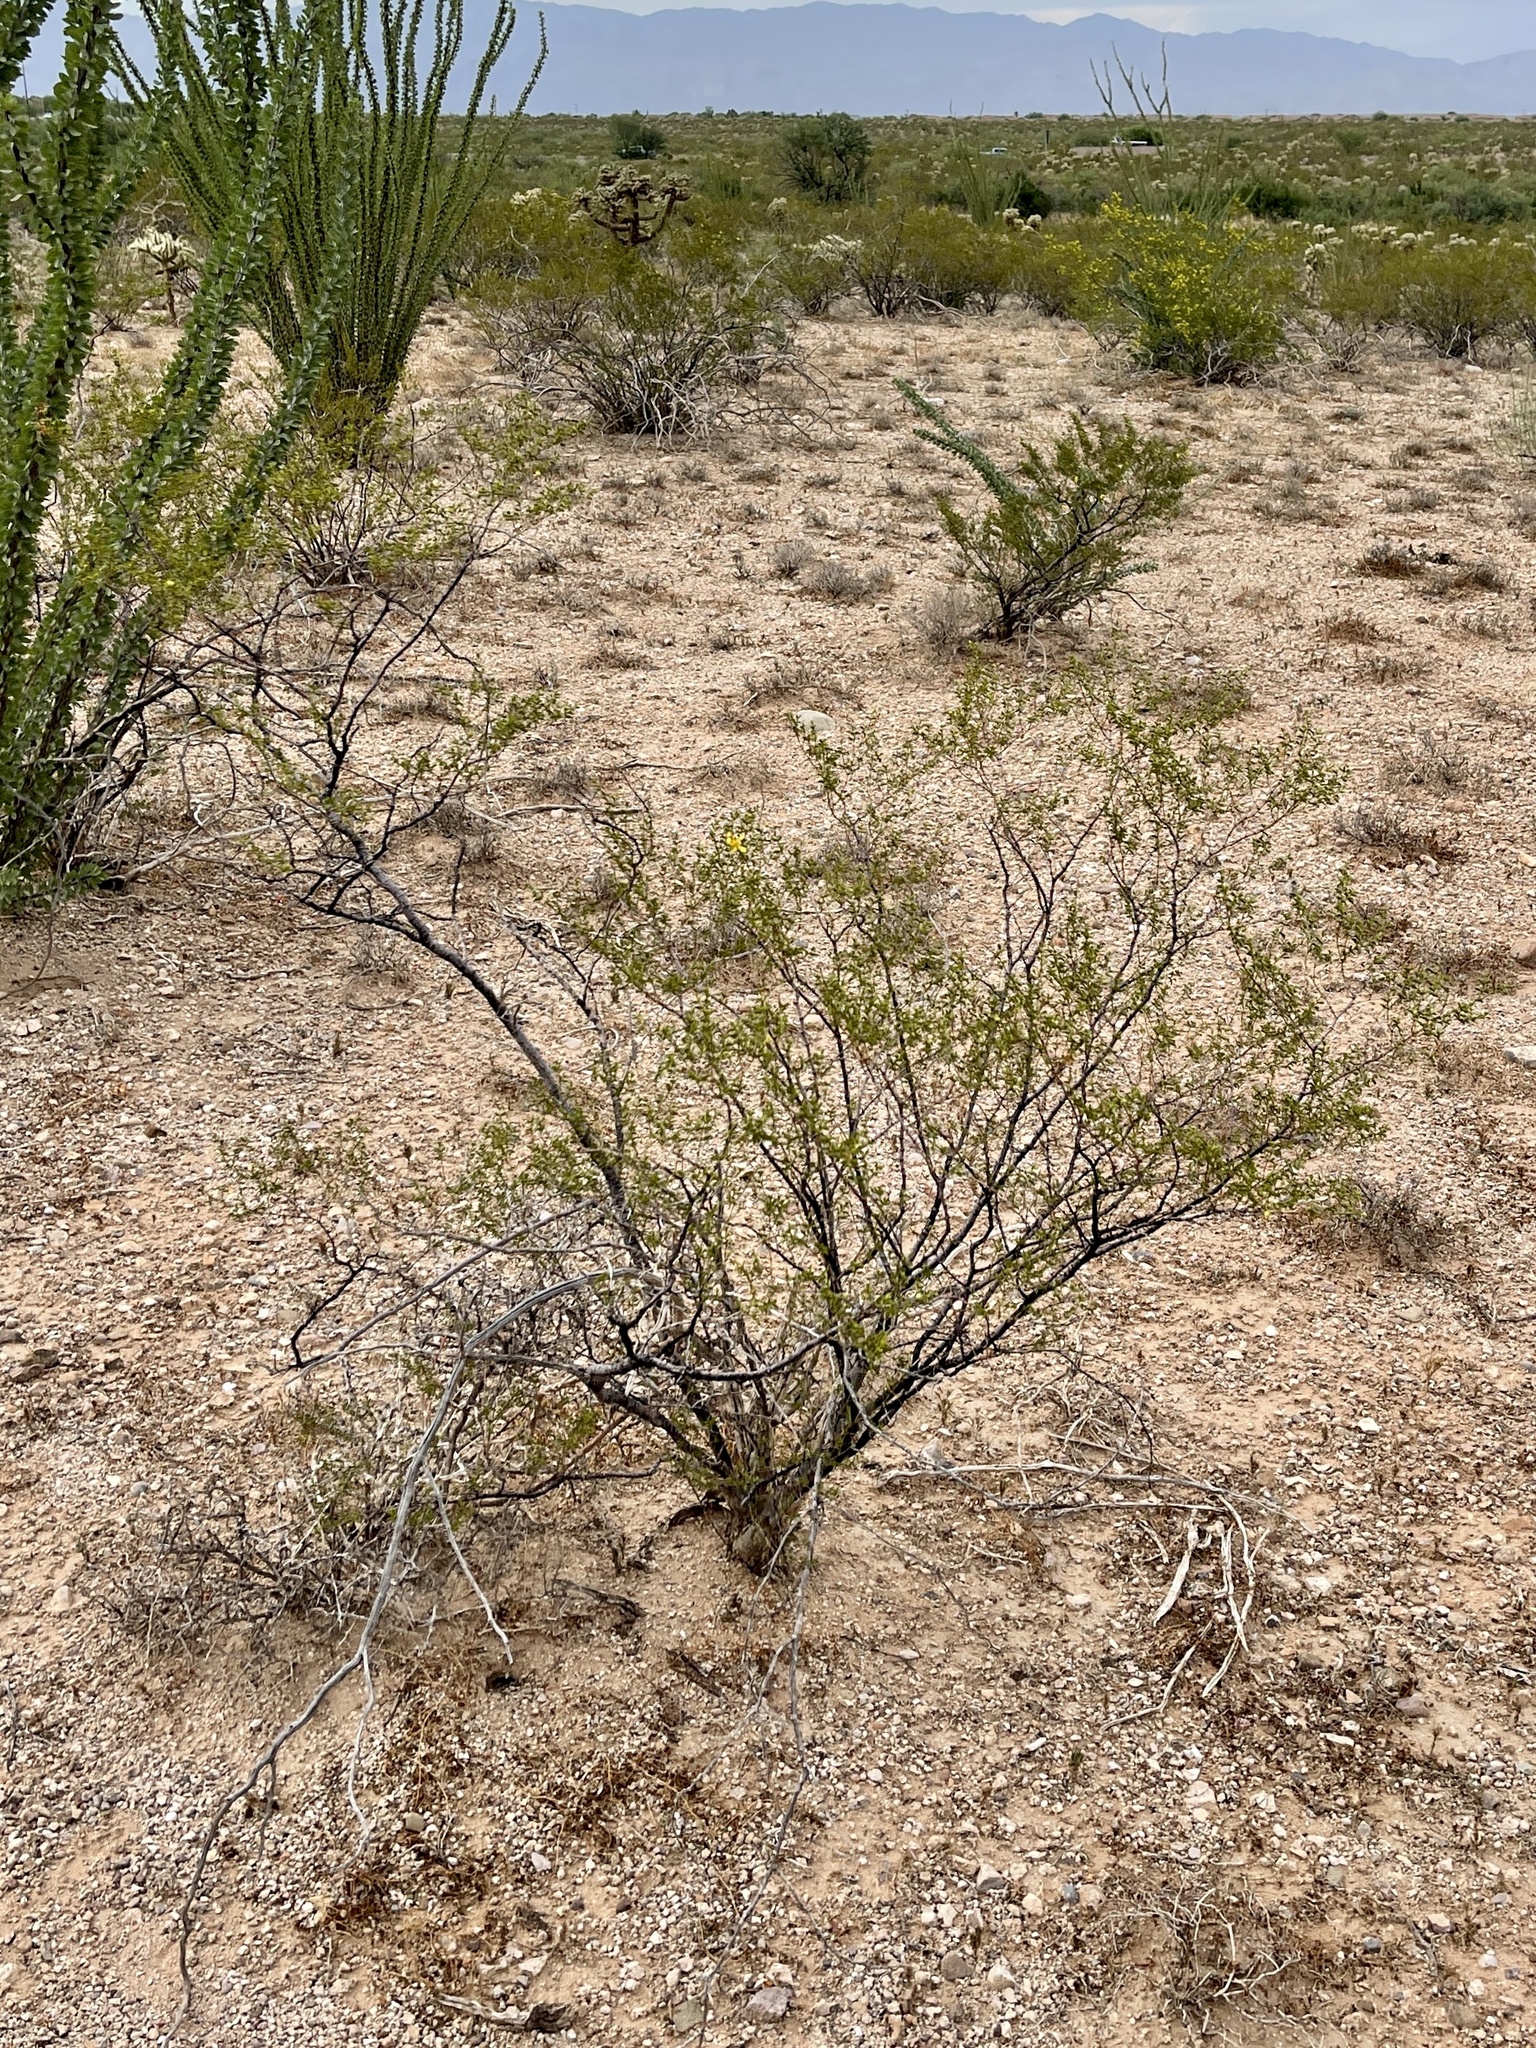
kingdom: Plantae
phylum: Tracheophyta
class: Magnoliopsida
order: Zygophyllales
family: Zygophyllaceae
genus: Larrea
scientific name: Larrea tridentata
